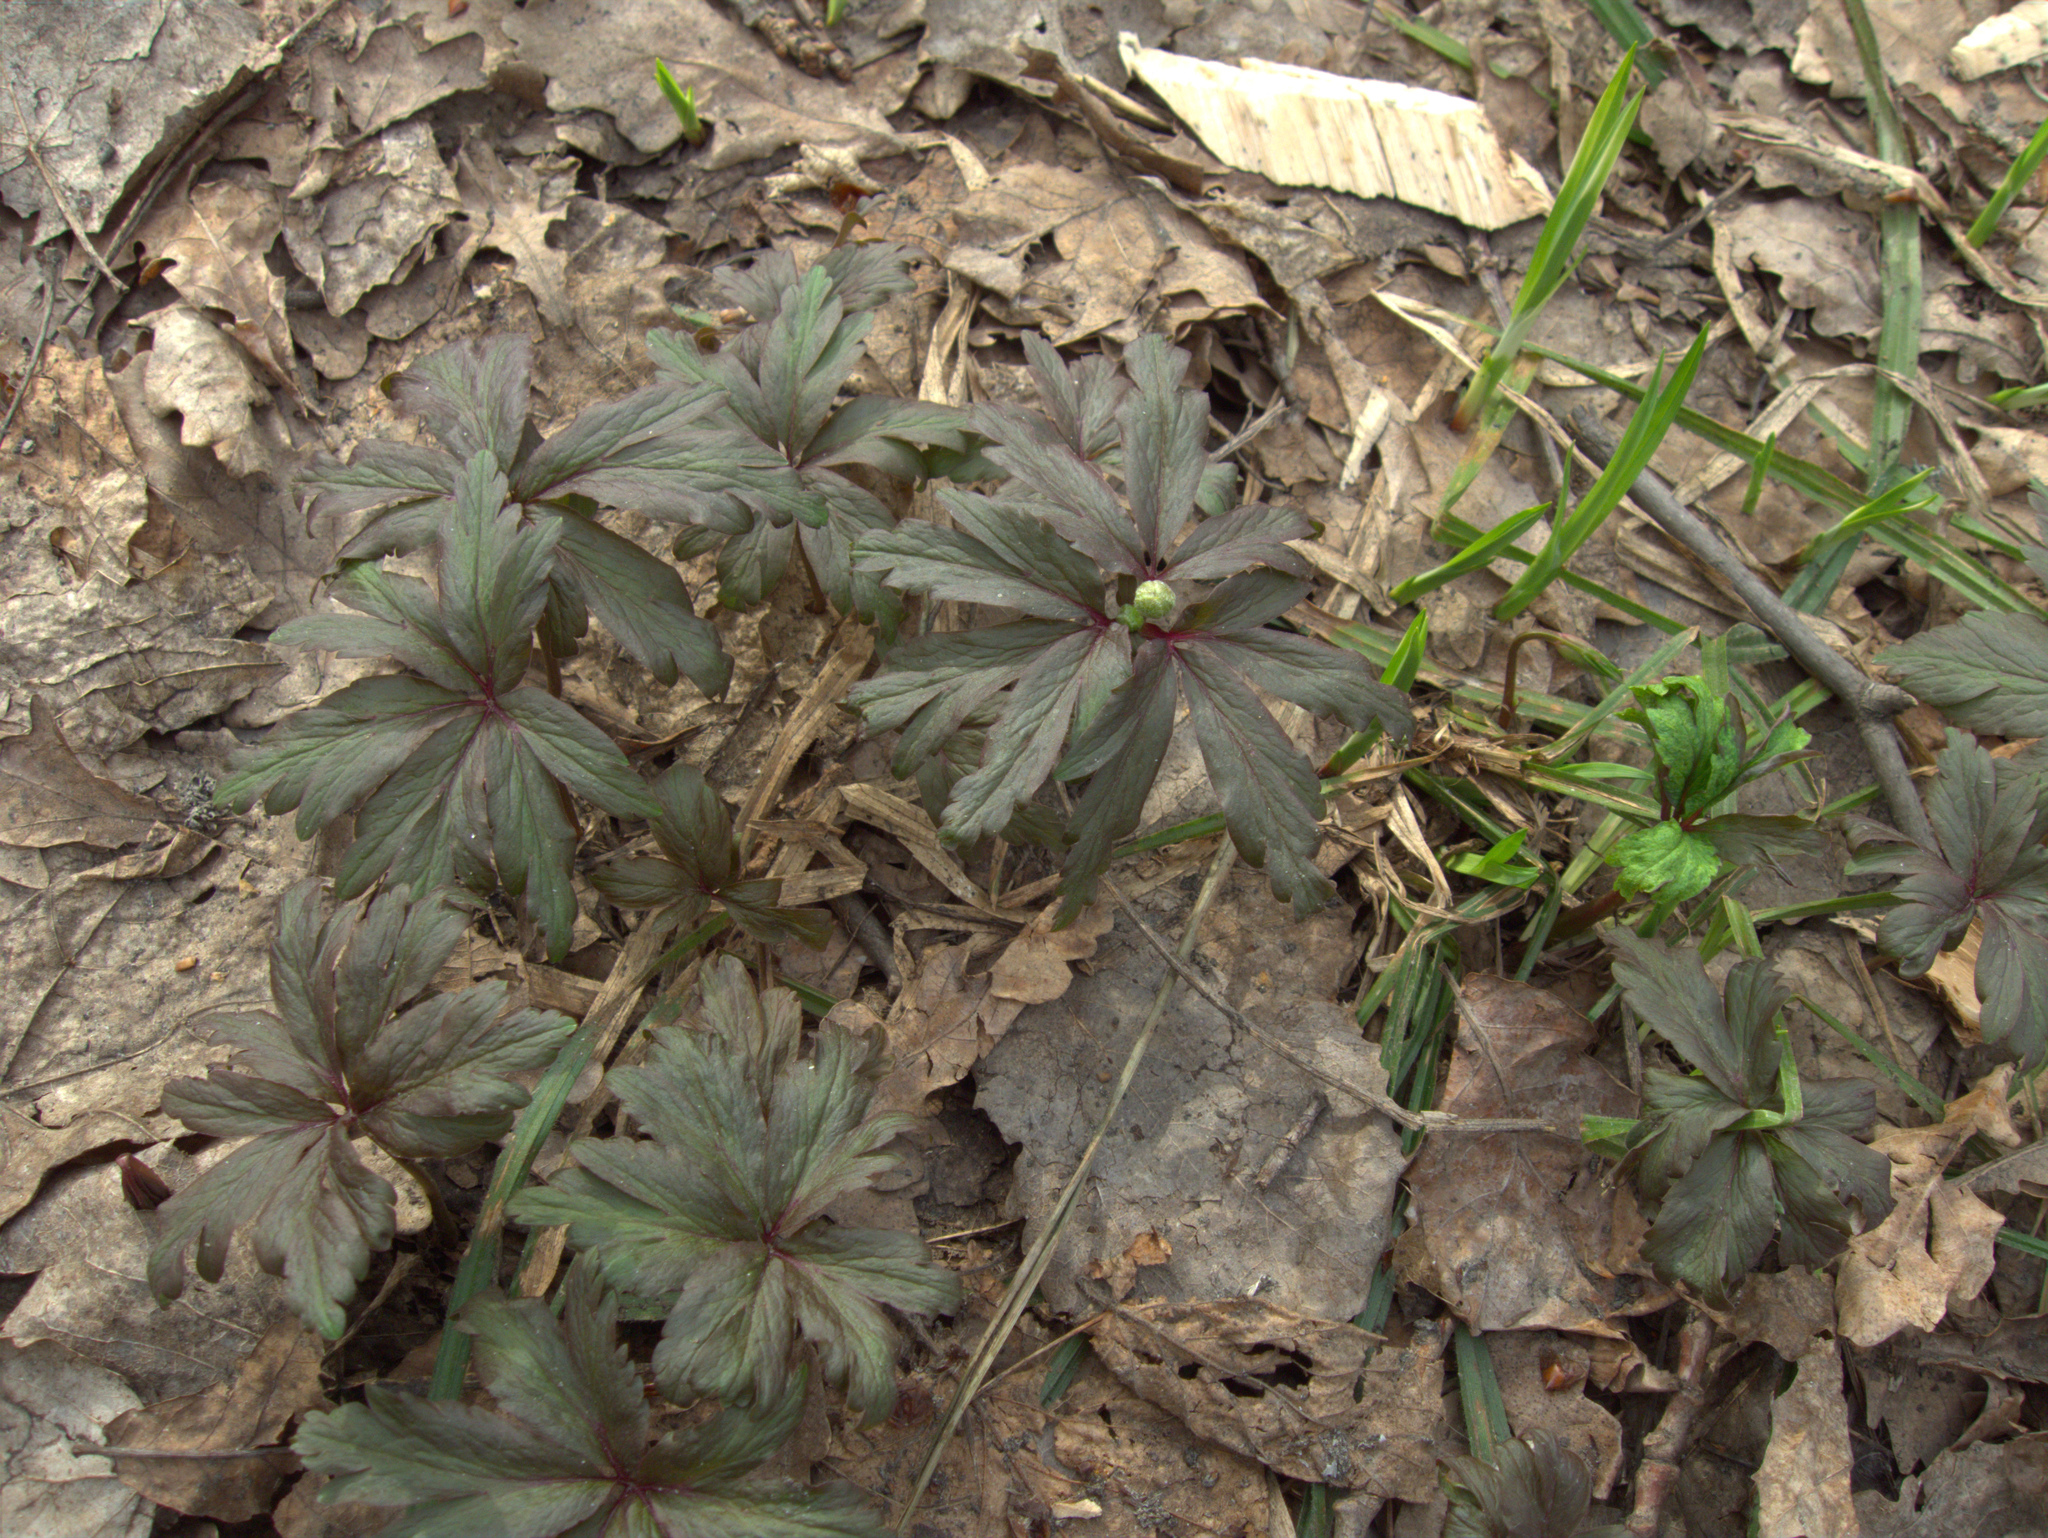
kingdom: Plantae
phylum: Tracheophyta
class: Magnoliopsida
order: Ranunculales
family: Ranunculaceae
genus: Anemone
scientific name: Anemone ranunculoides
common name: Yellow anemone
